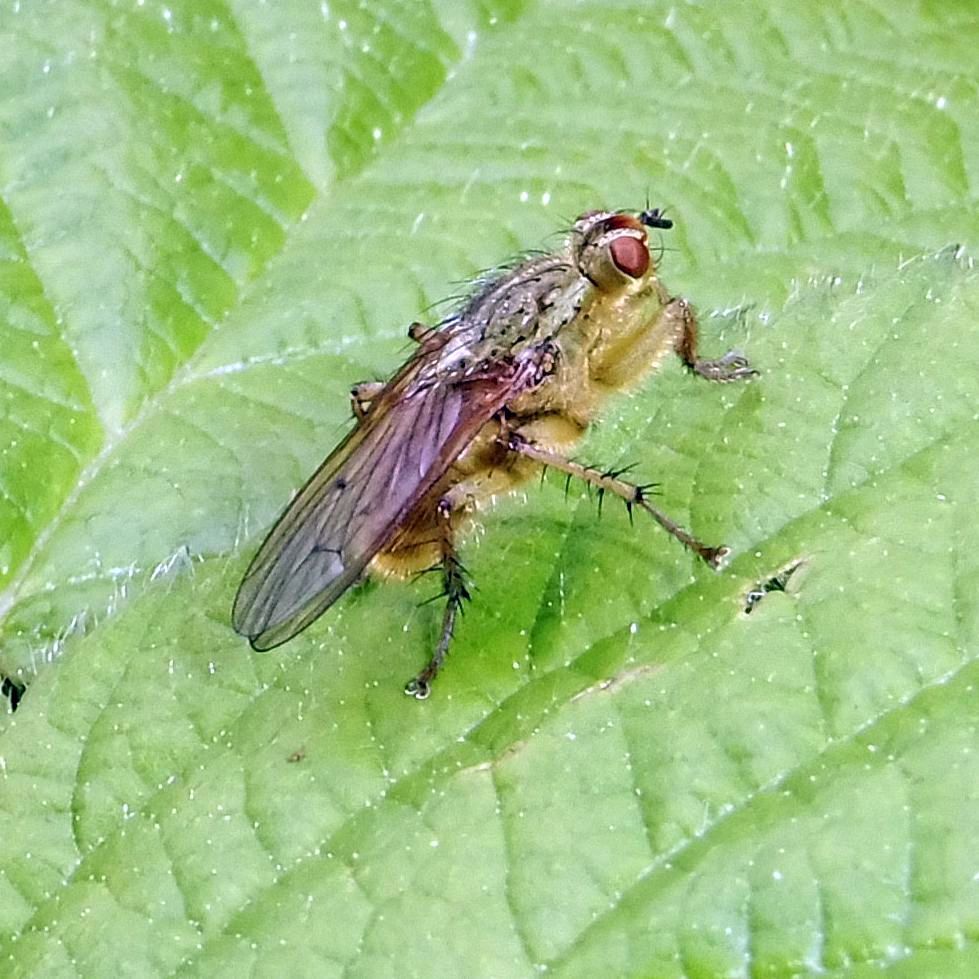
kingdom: Animalia
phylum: Arthropoda
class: Insecta
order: Diptera
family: Scathophagidae
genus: Scathophaga
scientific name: Scathophaga stercoraria
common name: Yellow dung fly
